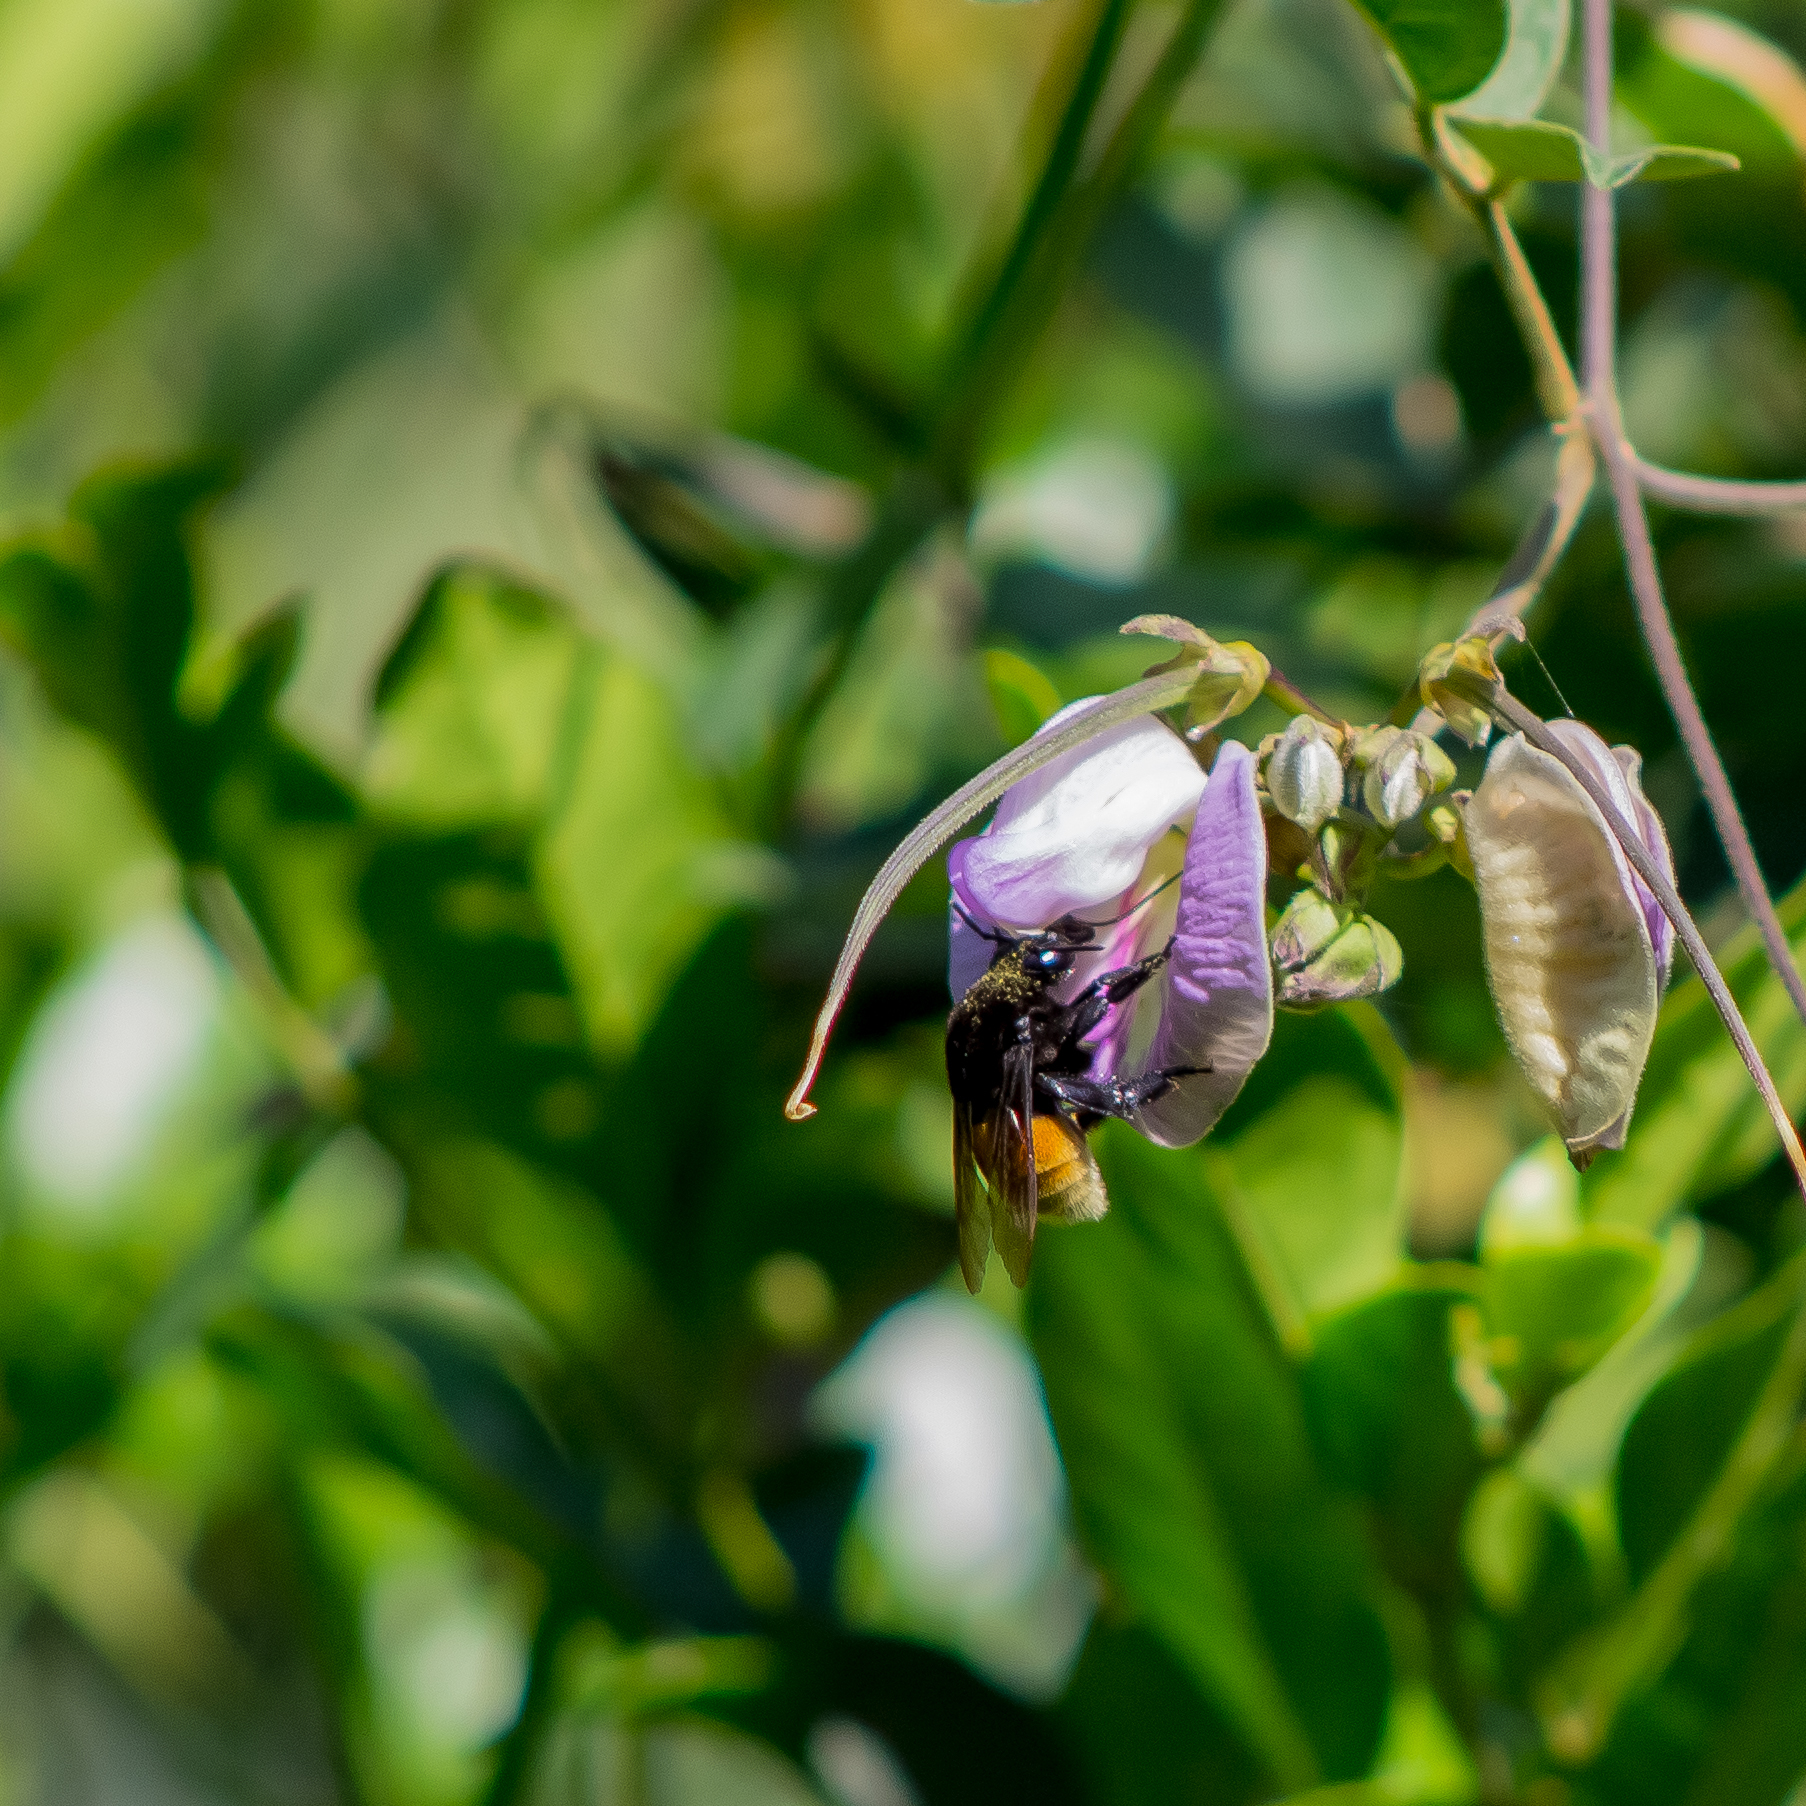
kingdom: Animalia
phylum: Arthropoda
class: Insecta
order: Hymenoptera
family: Apidae
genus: Eulaema
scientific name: Eulaema polychroma
